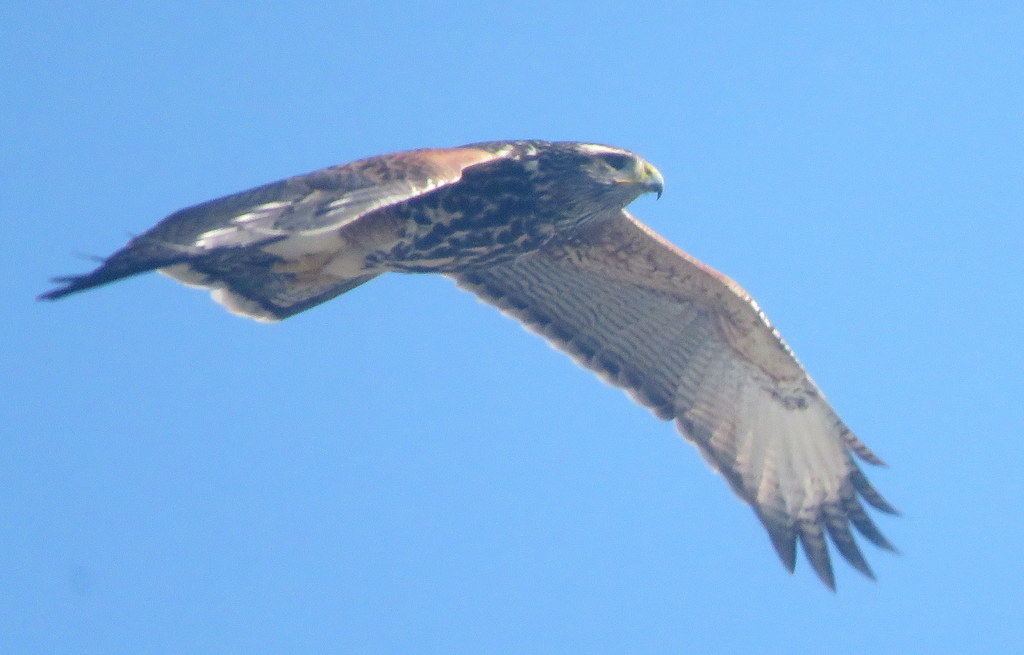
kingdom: Animalia
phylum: Chordata
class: Aves
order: Accipitriformes
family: Accipitridae
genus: Parabuteo
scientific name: Parabuteo unicinctus
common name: Harris's hawk
